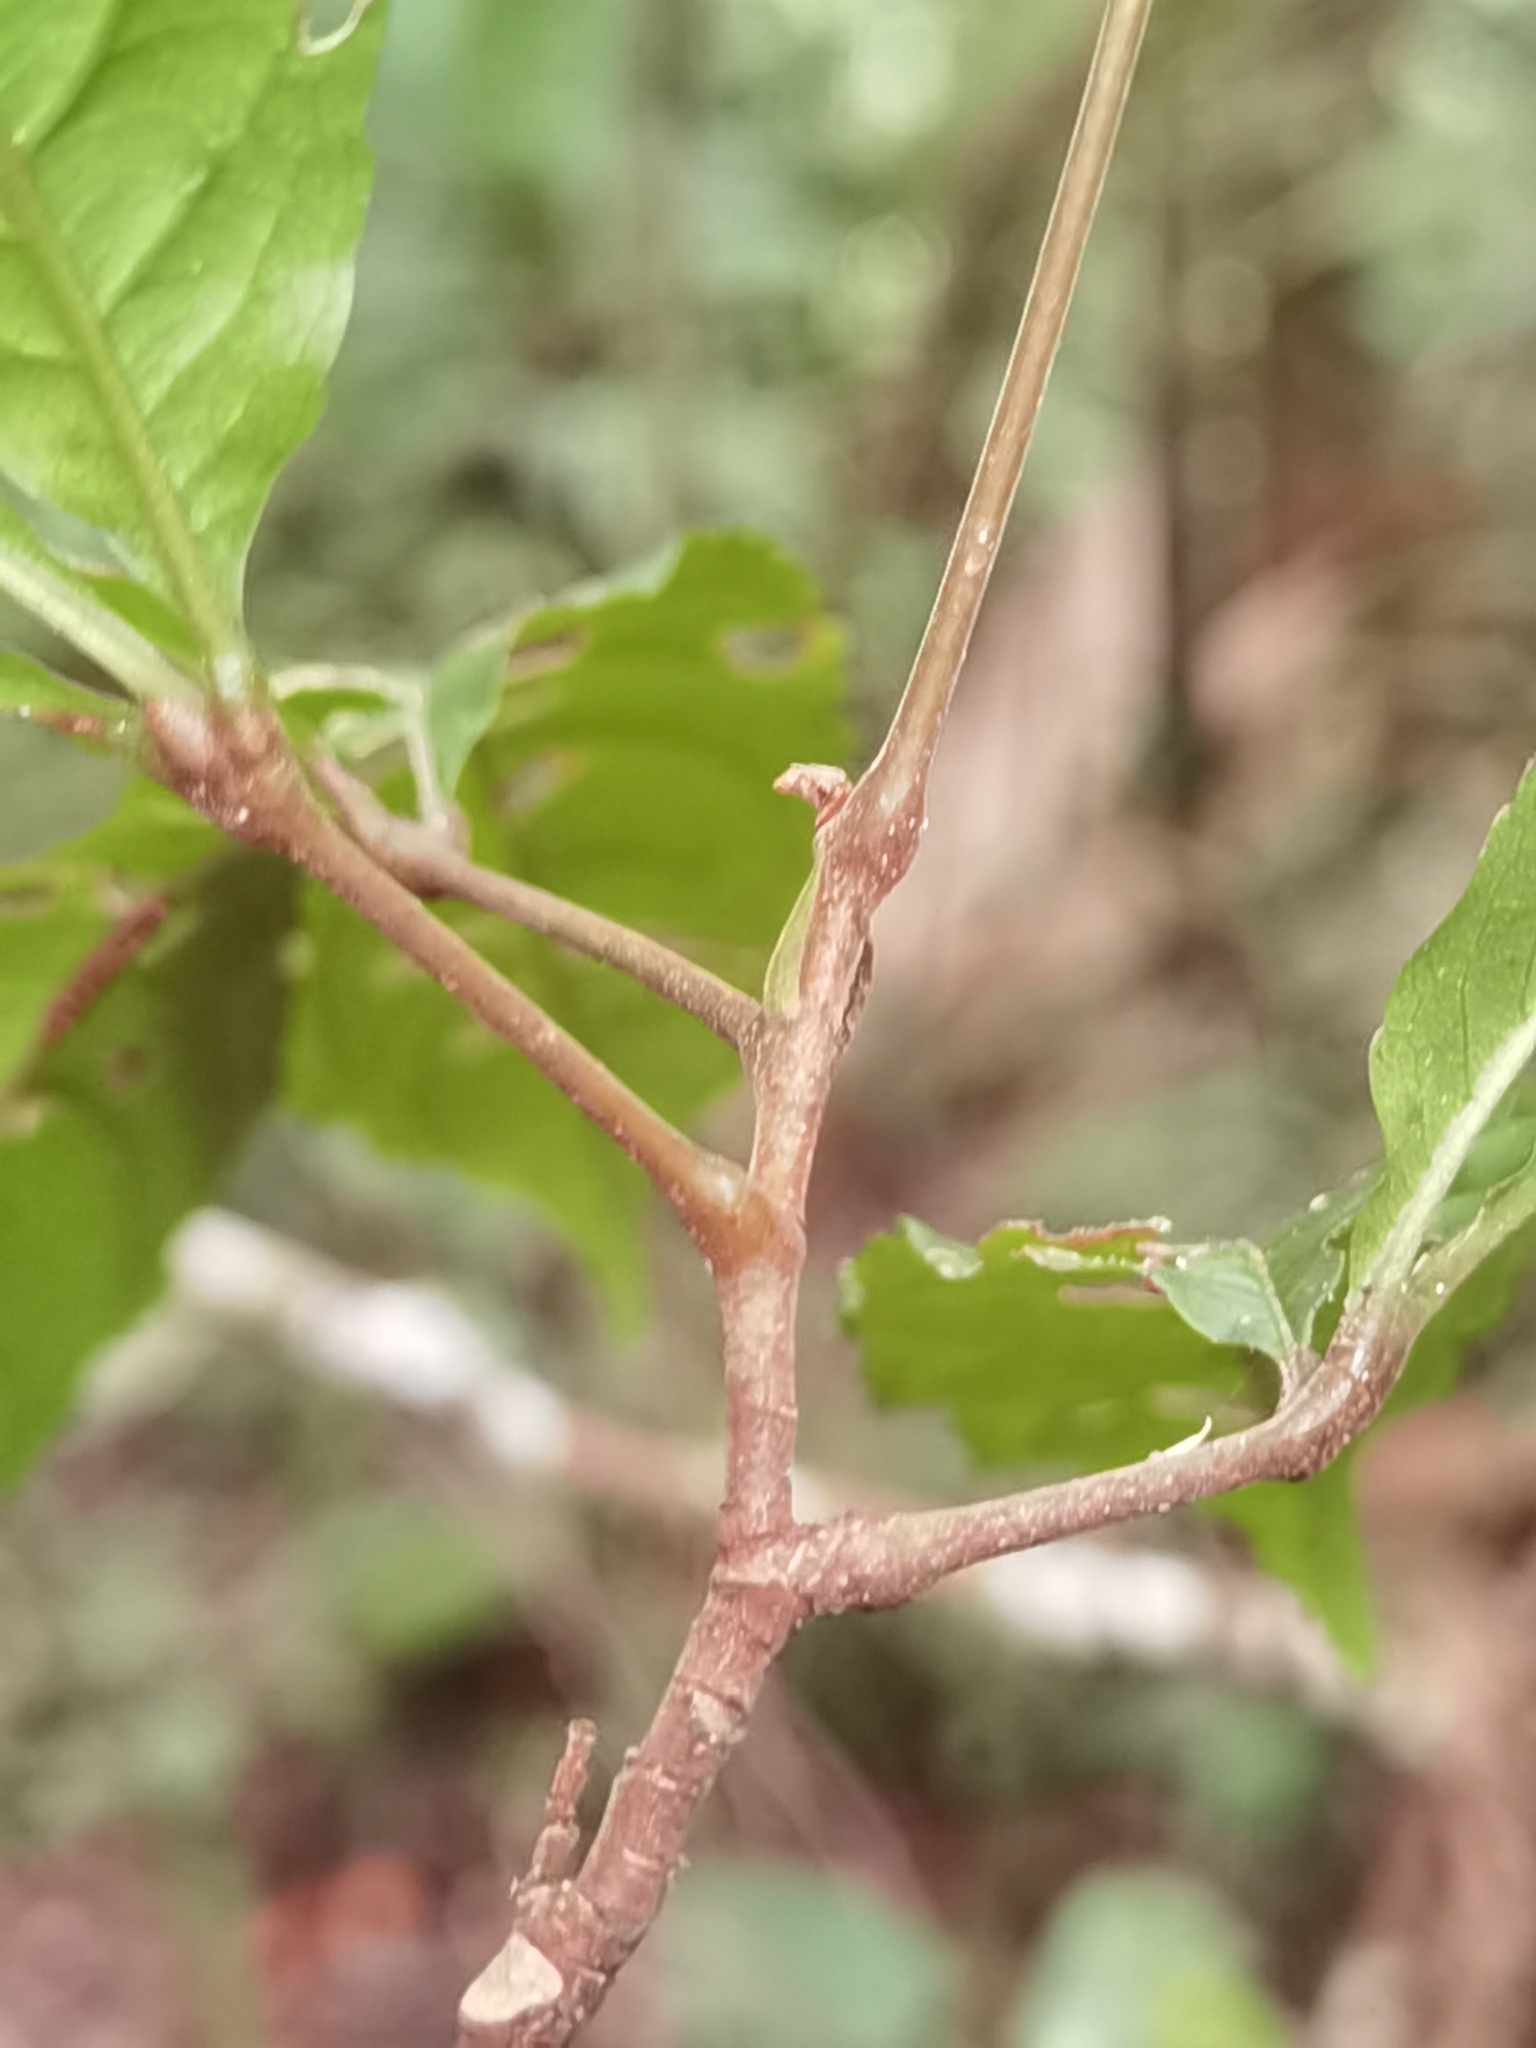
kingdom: Plantae
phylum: Tracheophyta
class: Magnoliopsida
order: Malpighiales
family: Caryocaraceae
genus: Anthodiscus
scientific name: Anthodiscus chocoensis
